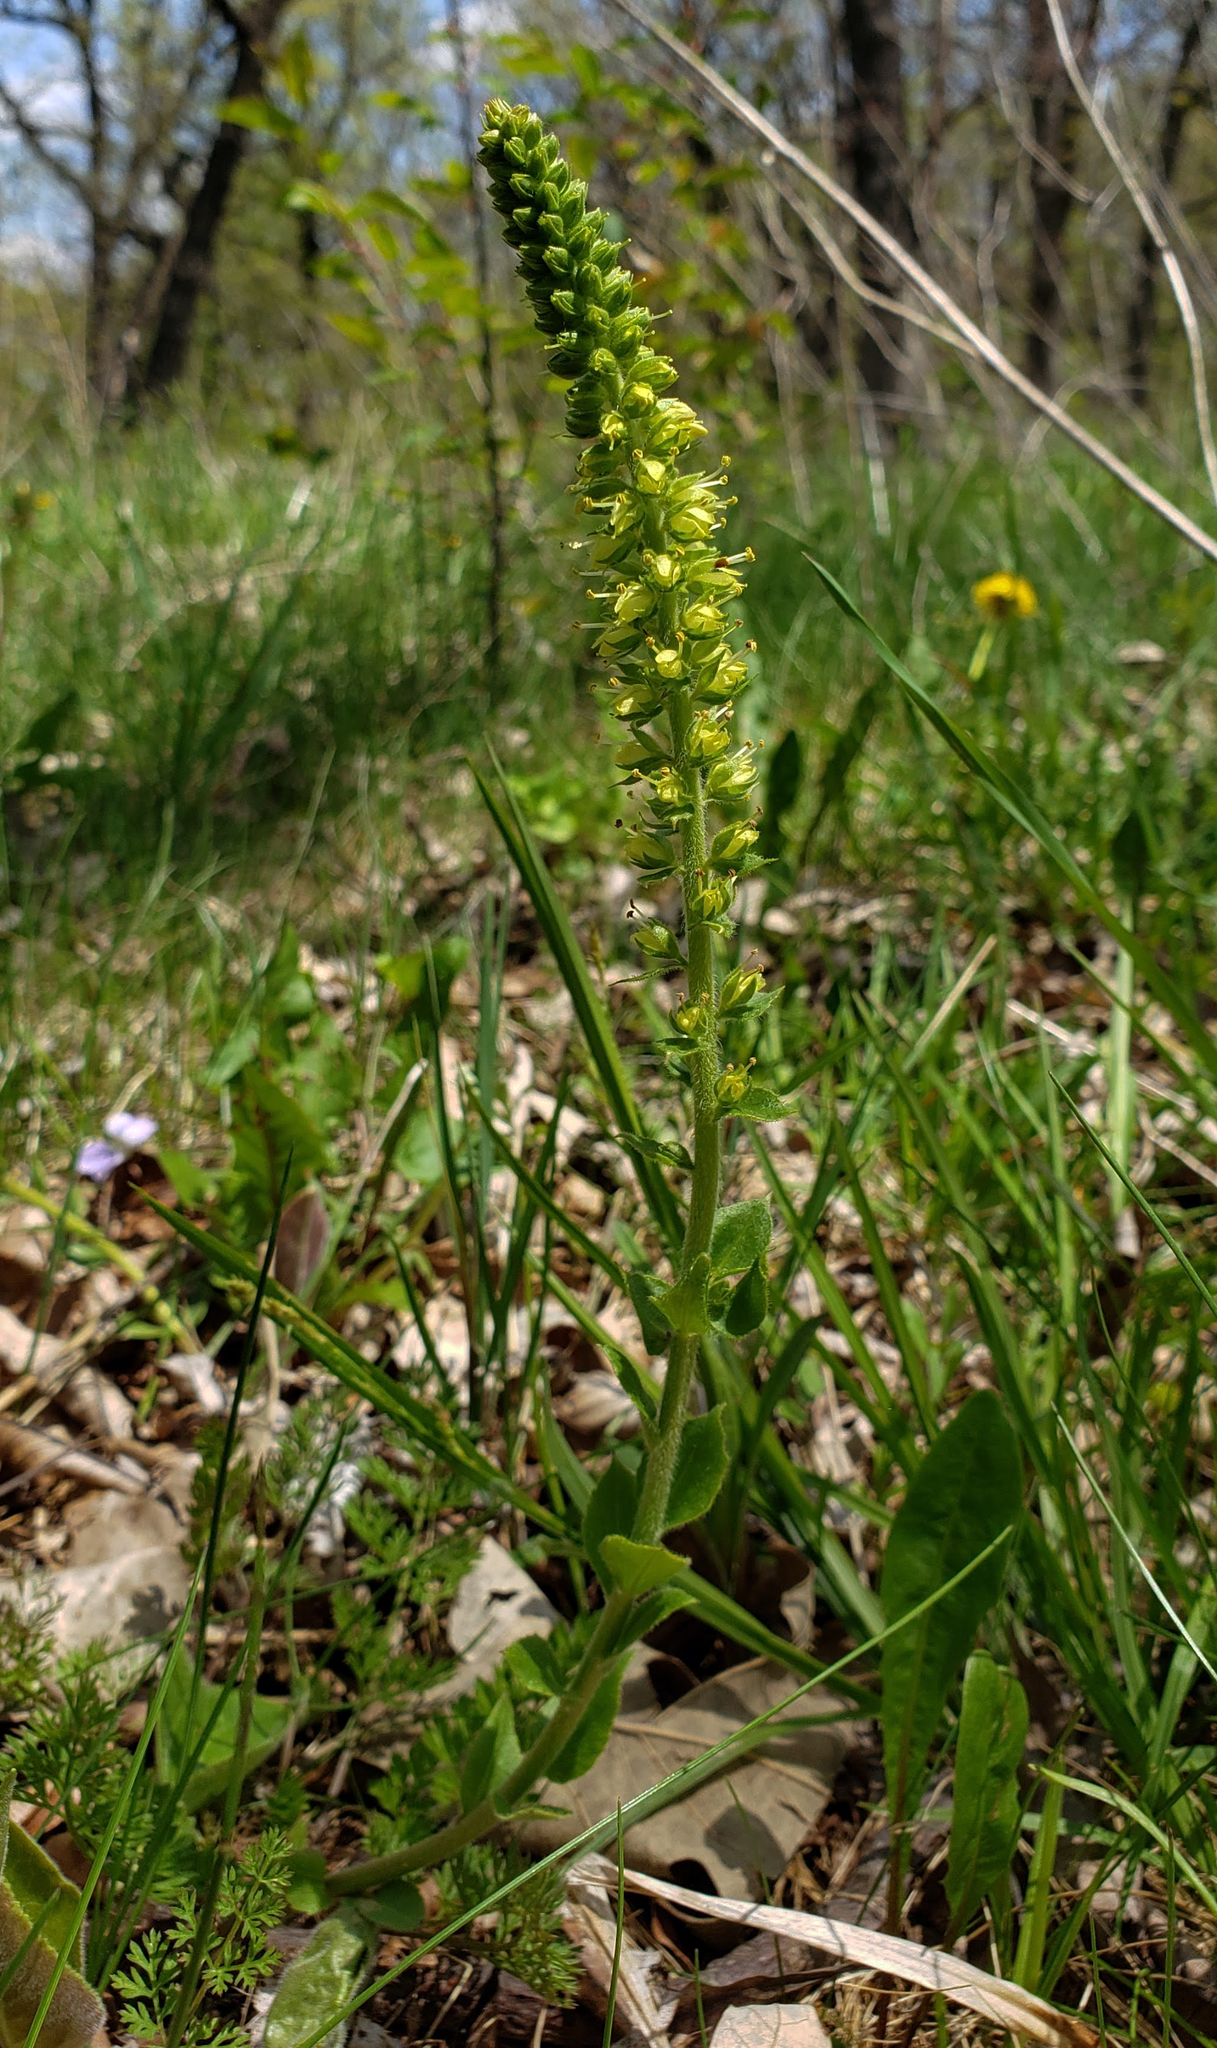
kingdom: Plantae
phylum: Tracheophyta
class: Magnoliopsida
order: Lamiales
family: Plantaginaceae
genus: Synthyris
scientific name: Synthyris bullii
